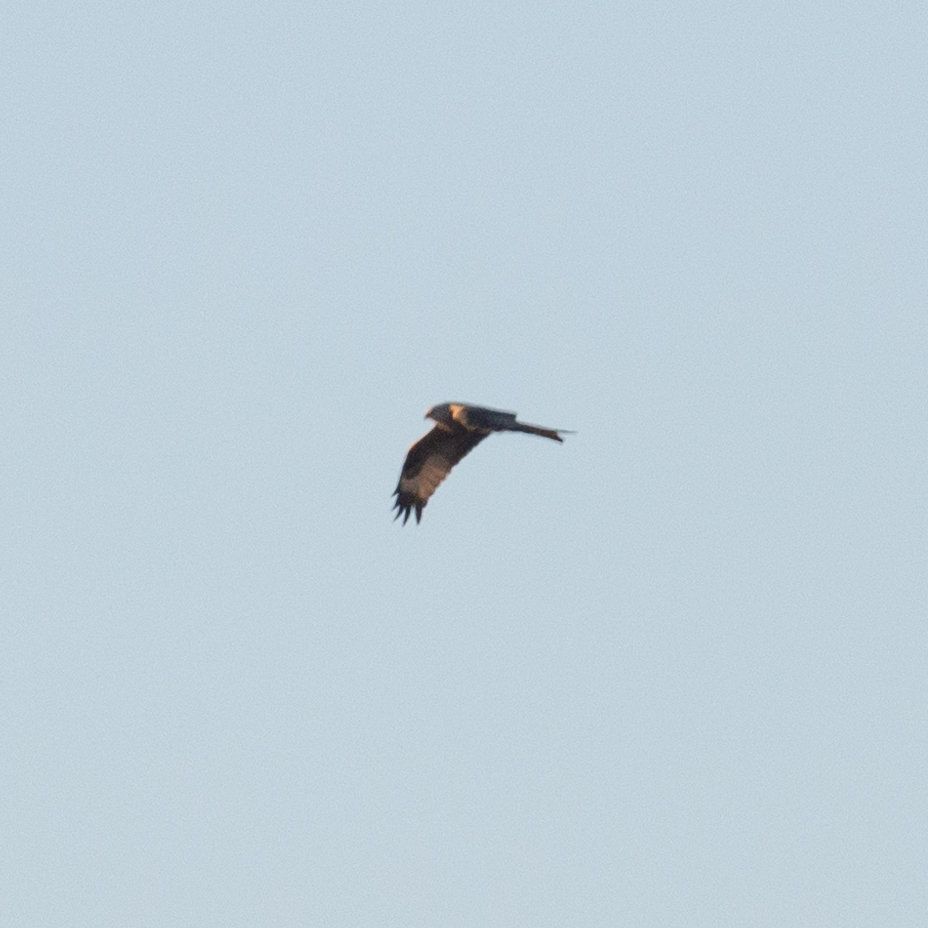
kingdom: Animalia
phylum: Chordata
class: Aves
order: Accipitriformes
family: Accipitridae
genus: Milvus
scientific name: Milvus milvus
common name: Red kite
